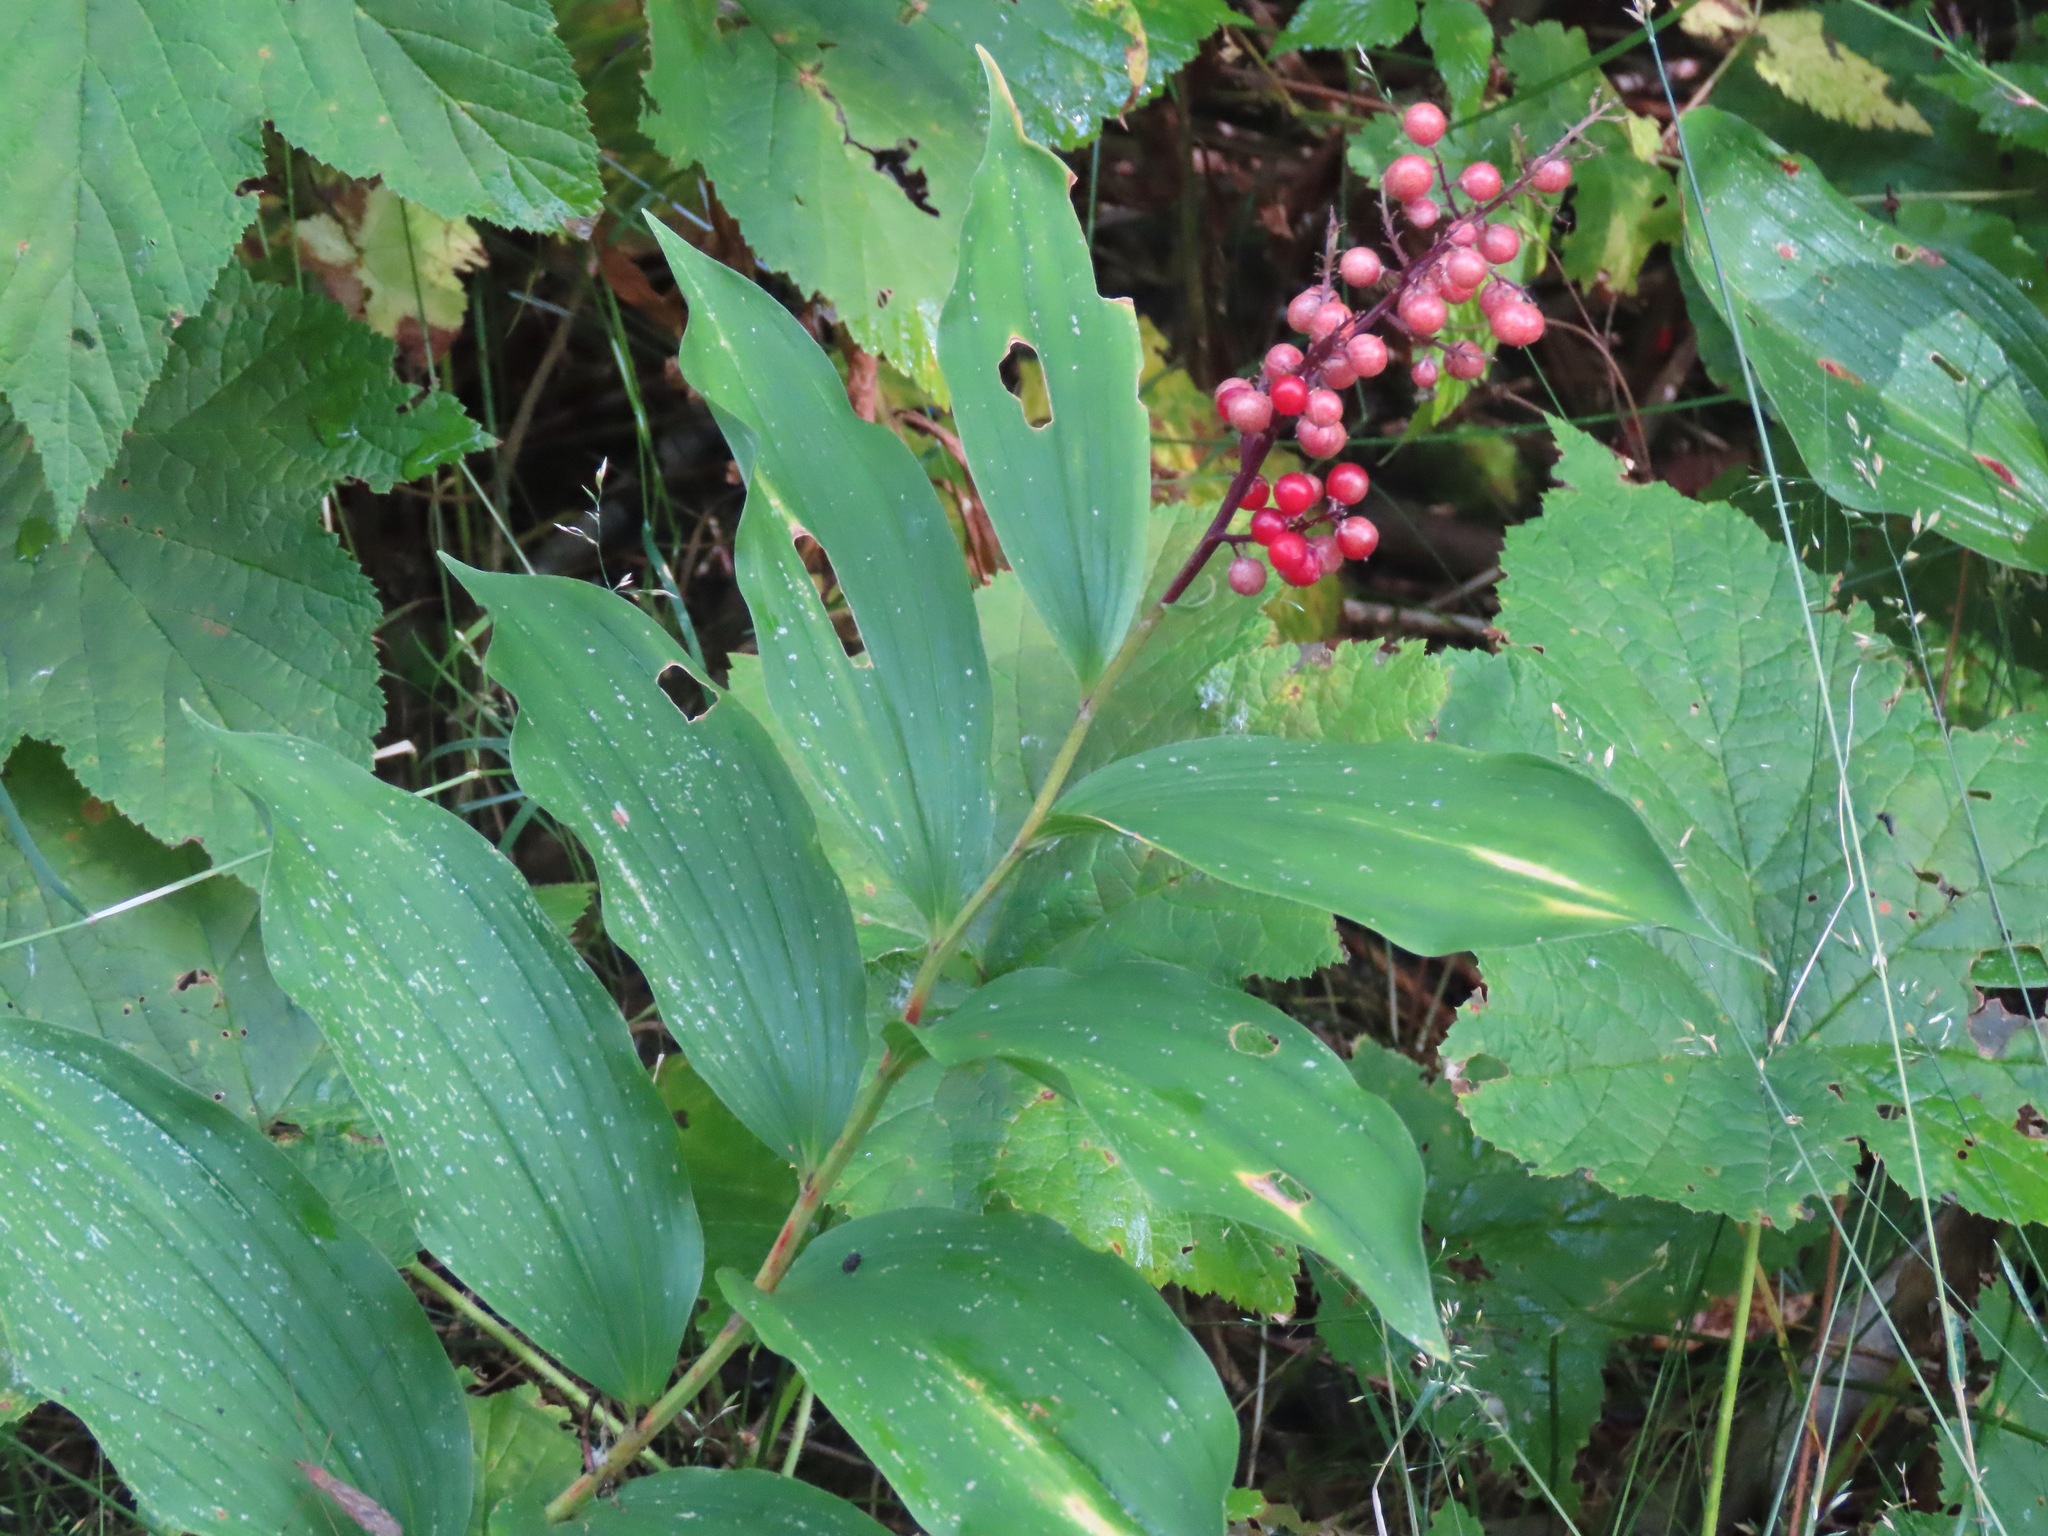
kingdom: Plantae
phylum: Tracheophyta
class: Liliopsida
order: Asparagales
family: Asparagaceae
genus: Maianthemum
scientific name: Maianthemum racemosum
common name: False spikenard
